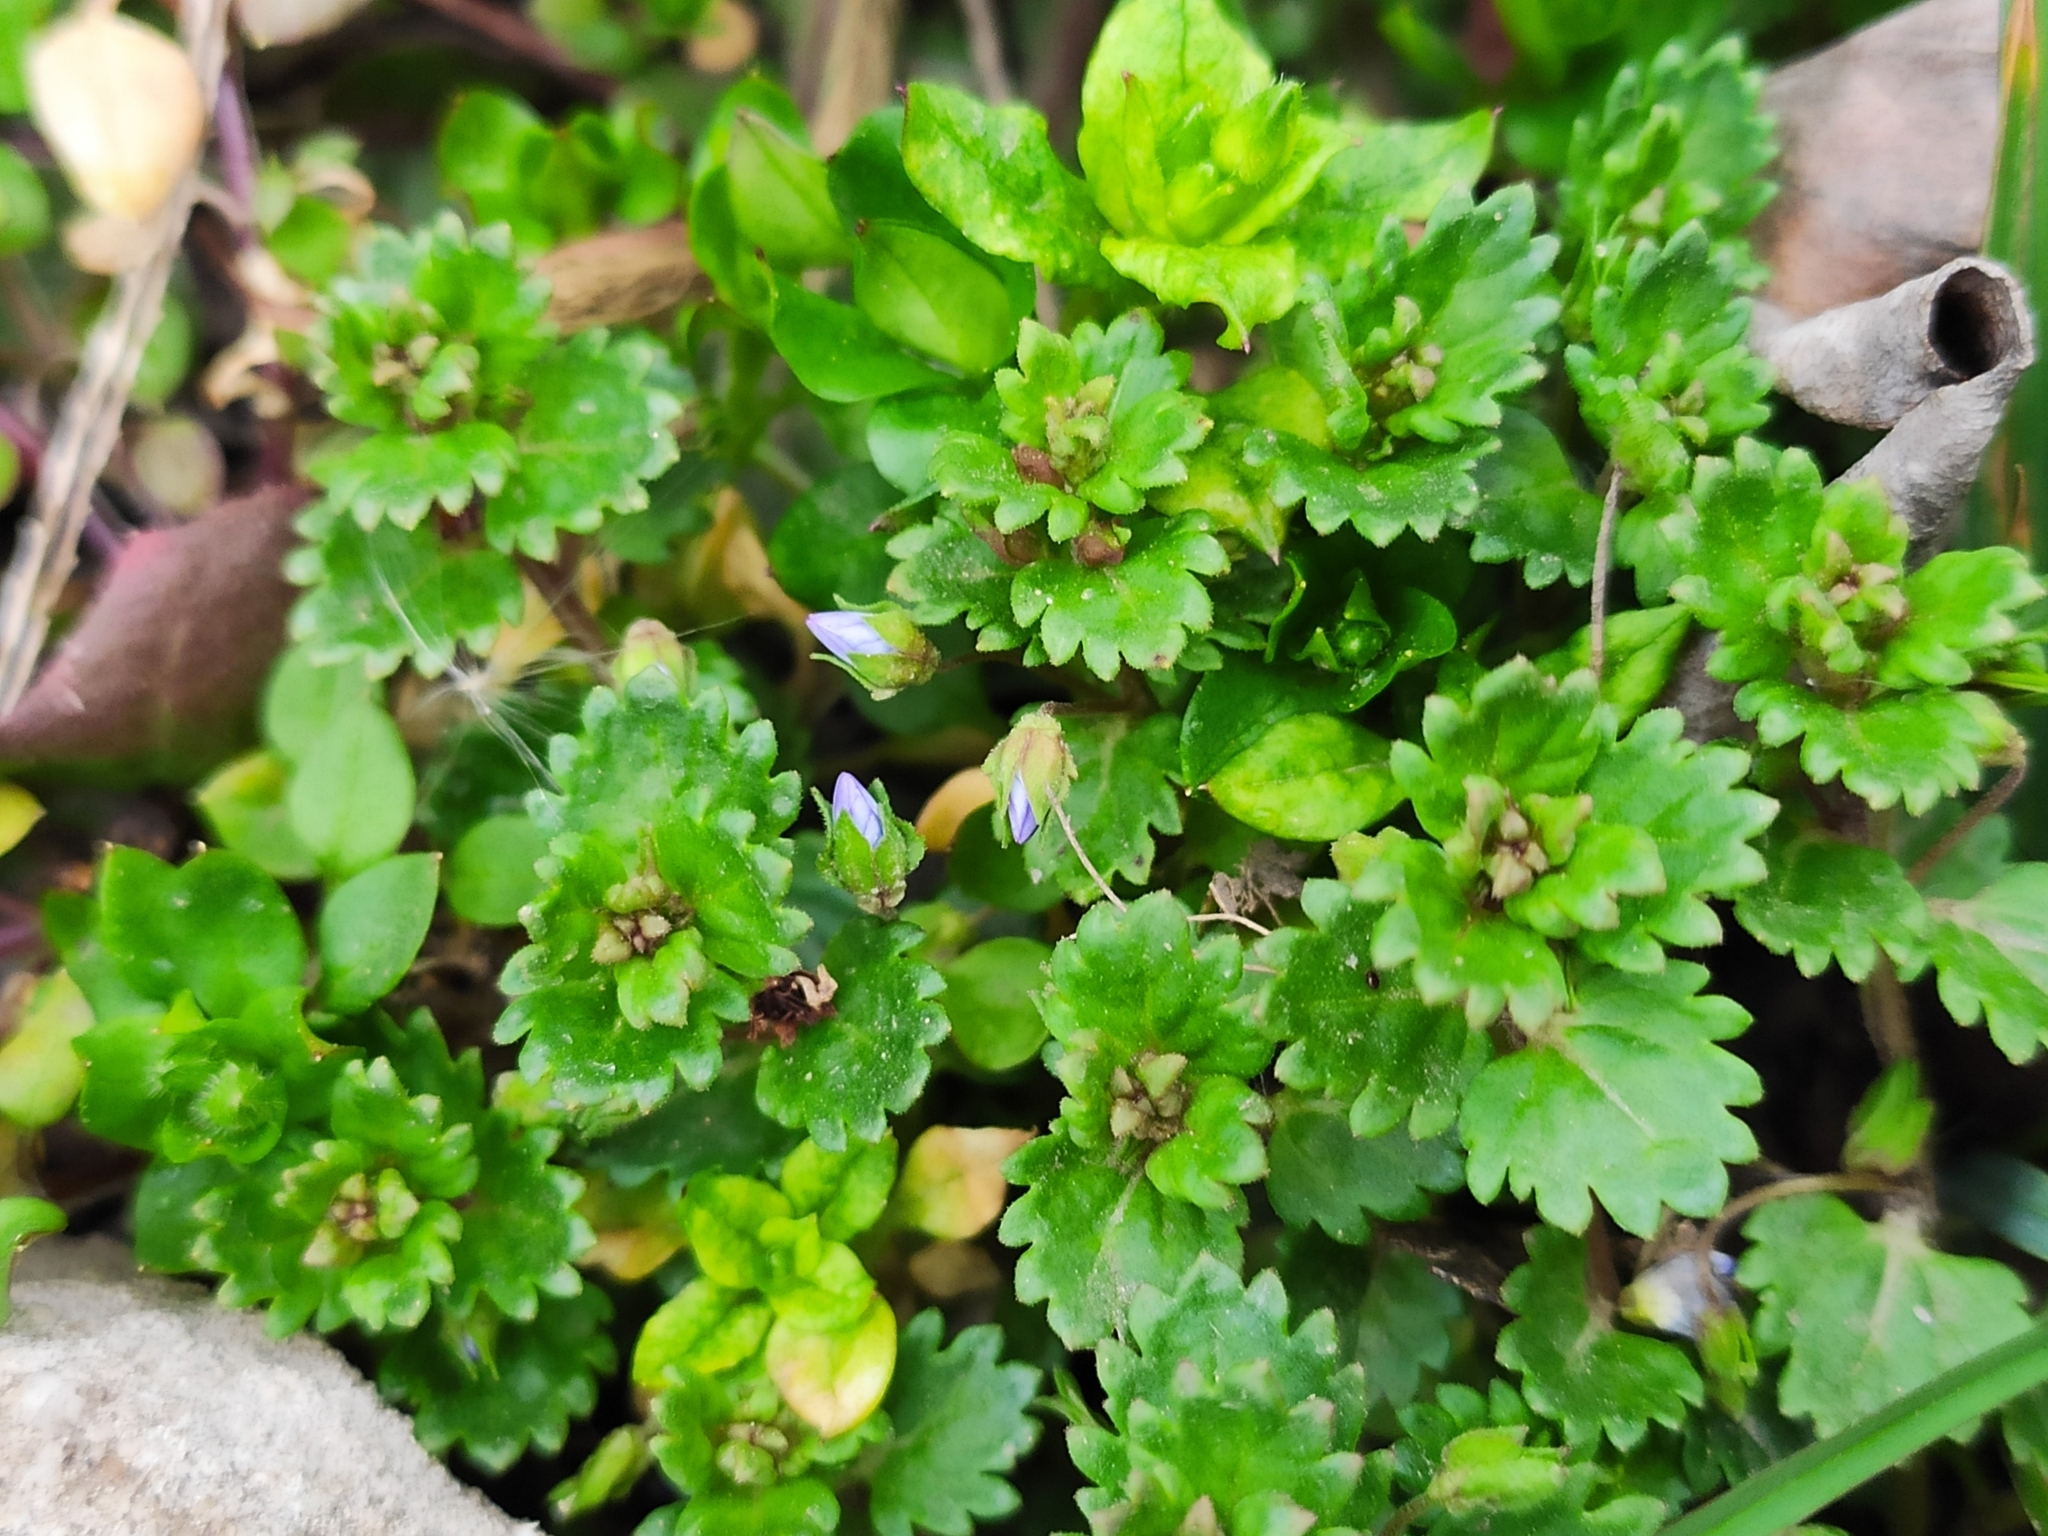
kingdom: Plantae
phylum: Tracheophyta
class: Magnoliopsida
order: Lamiales
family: Plantaginaceae
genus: Veronica
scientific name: Veronica persica
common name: Common field-speedwell
